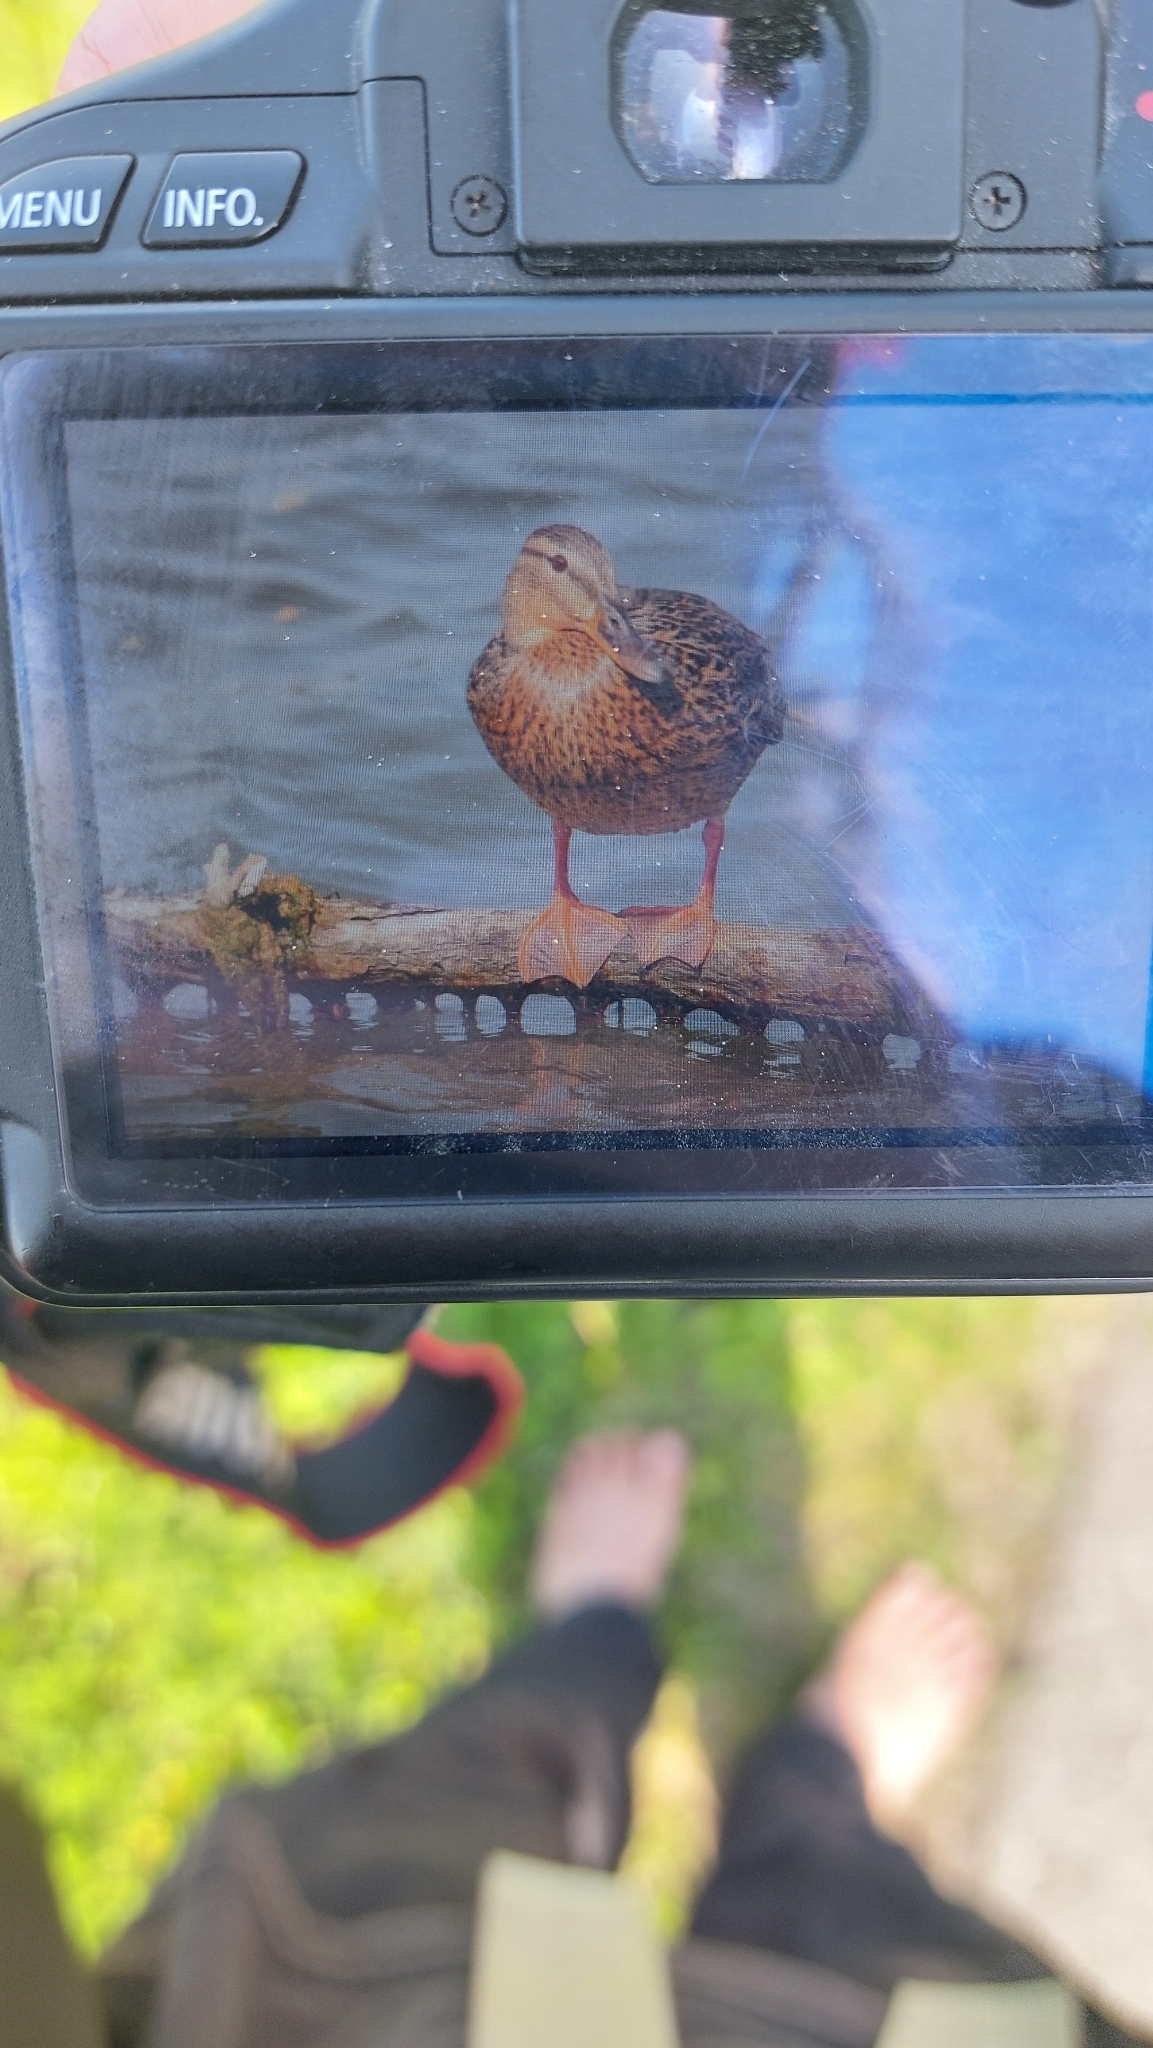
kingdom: Animalia
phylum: Chordata
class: Aves
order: Anseriformes
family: Anatidae
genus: Anas
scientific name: Anas platyrhynchos
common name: Mallard
